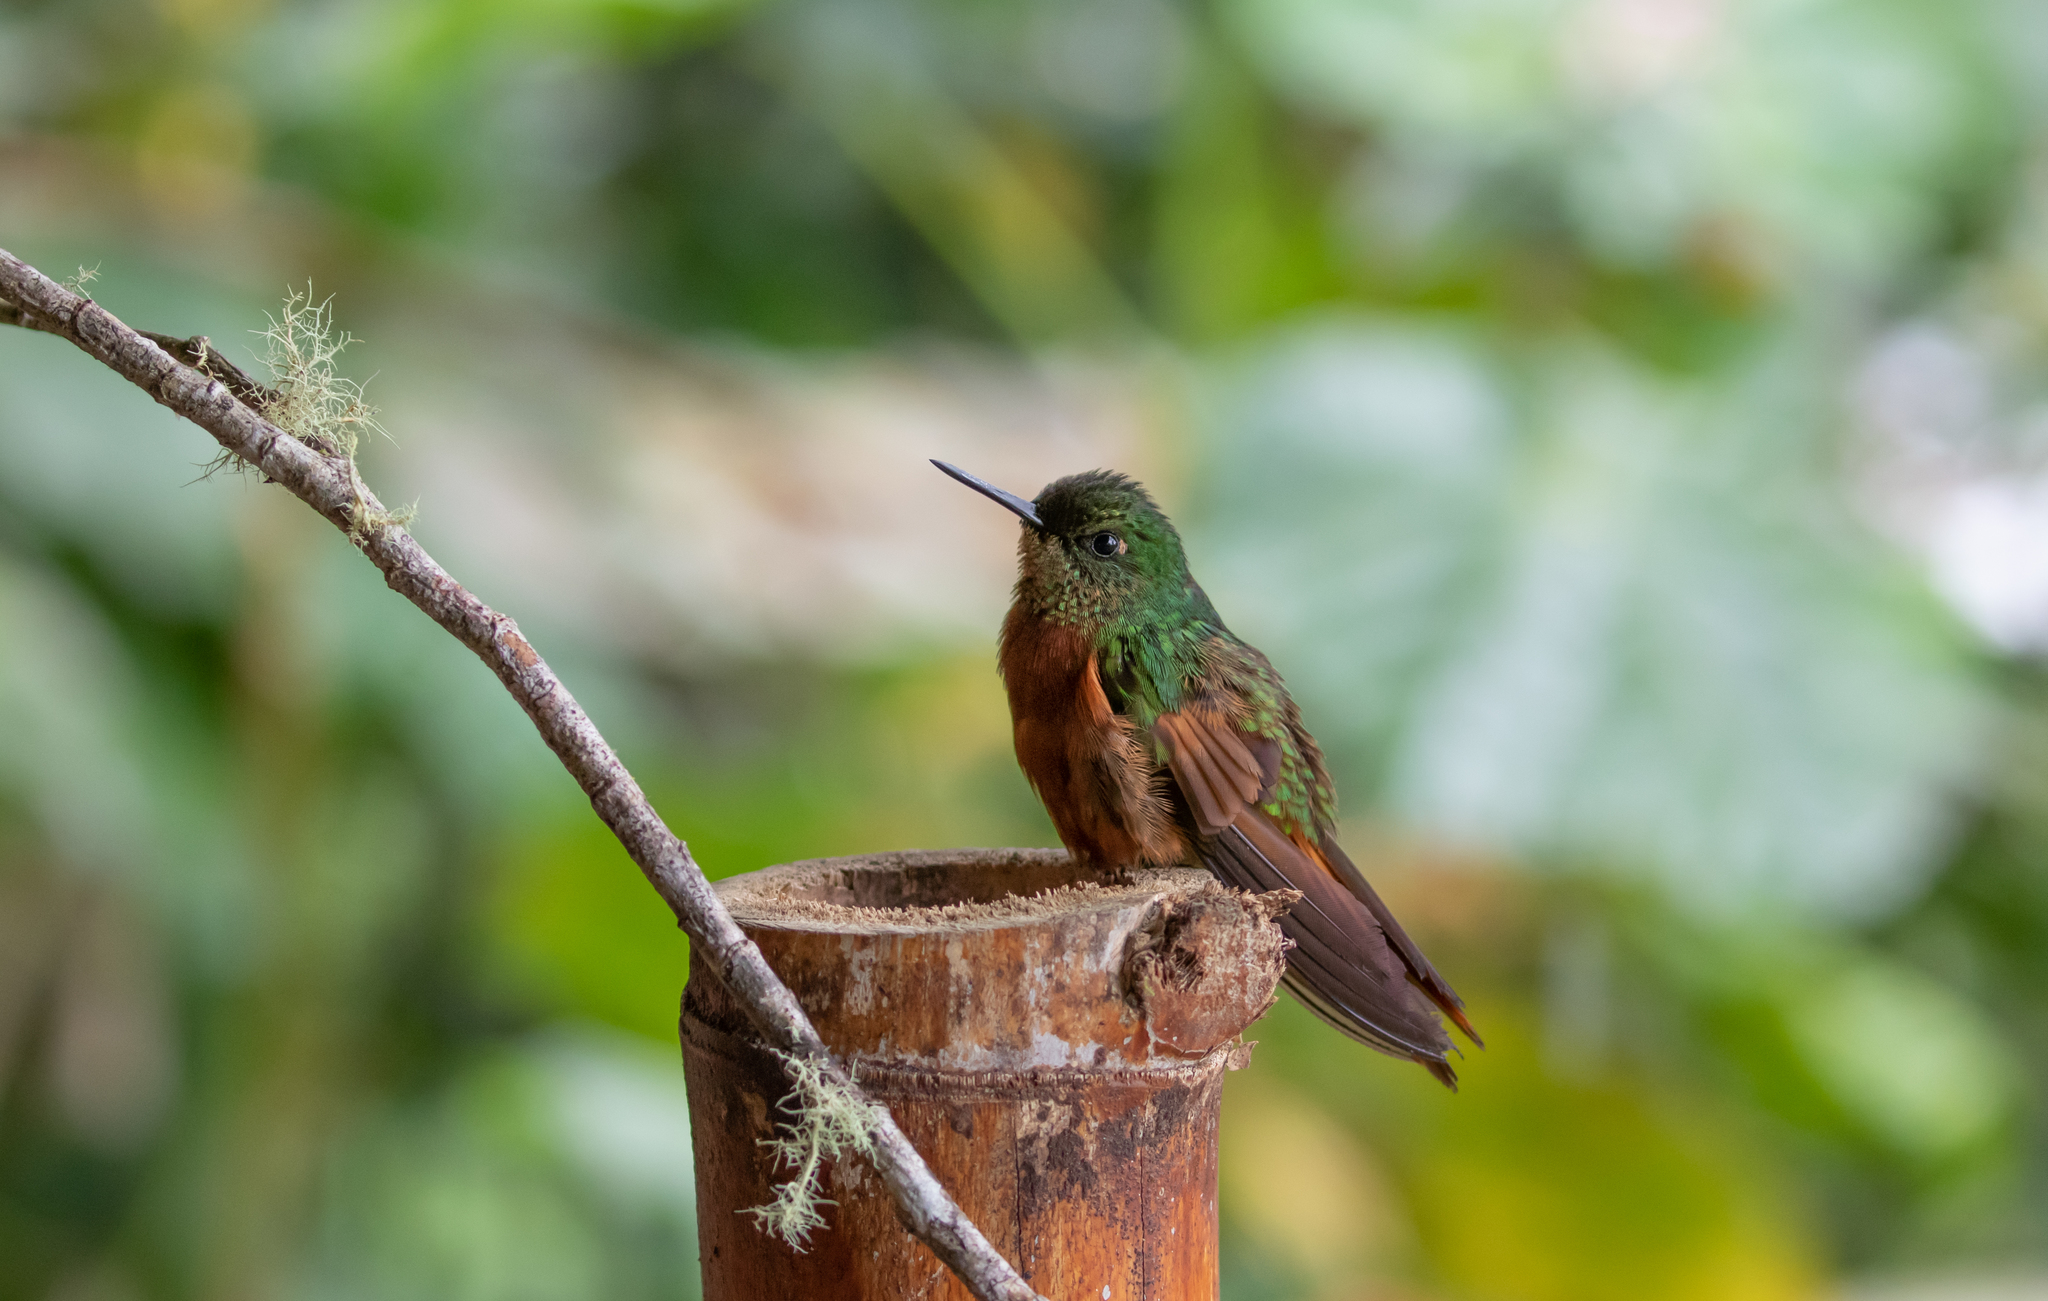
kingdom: Animalia
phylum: Chordata
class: Aves
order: Apodiformes
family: Trochilidae
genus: Boissonneaua
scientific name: Boissonneaua matthewsii
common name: Chestnut-breasted coronet
